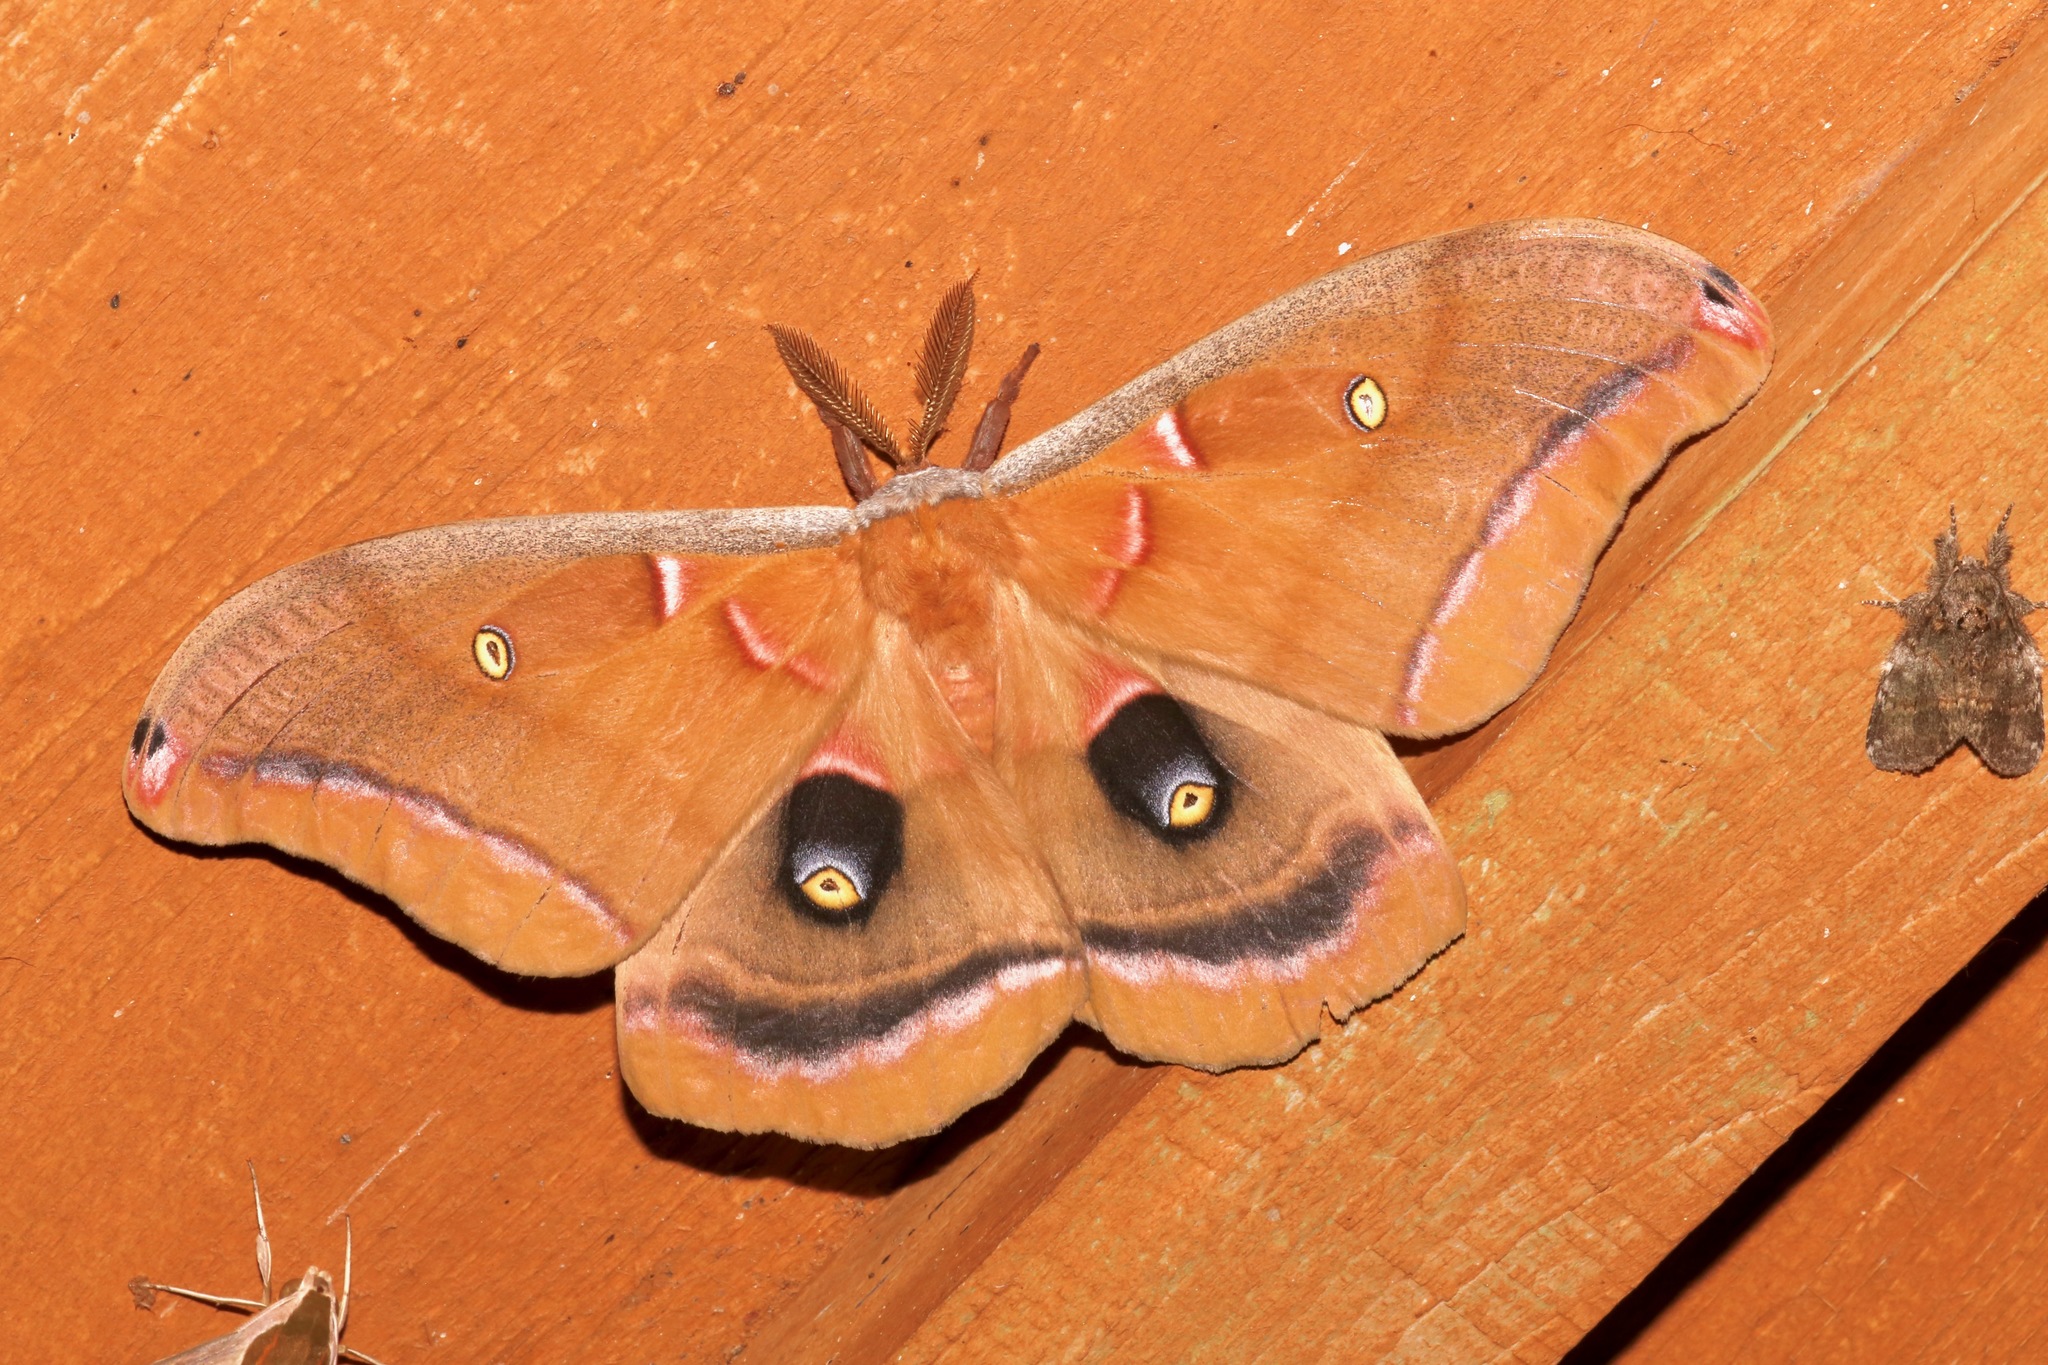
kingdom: Animalia
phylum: Arthropoda
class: Insecta
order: Lepidoptera
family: Saturniidae
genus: Antheraea
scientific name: Antheraea polyphemus
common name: Polyphemus moth
